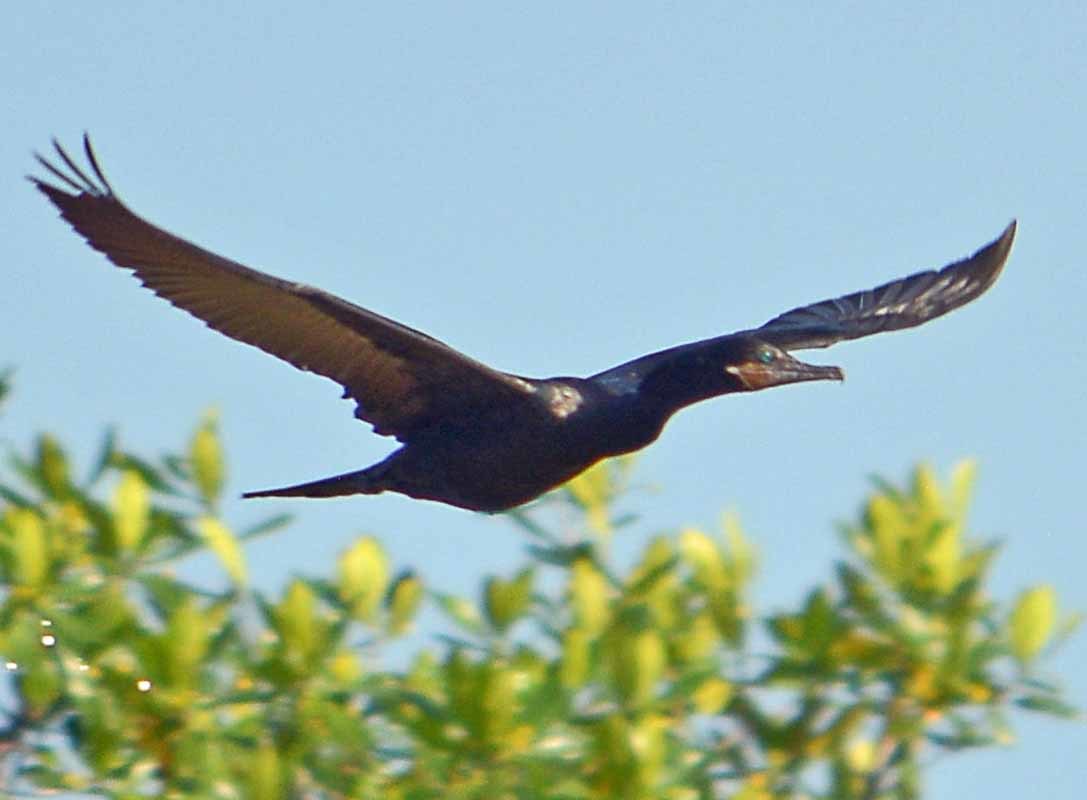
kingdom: Animalia
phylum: Chordata
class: Aves
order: Suliformes
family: Phalacrocoracidae
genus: Phalacrocorax
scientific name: Phalacrocorax brasilianus
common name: Neotropic cormorant
